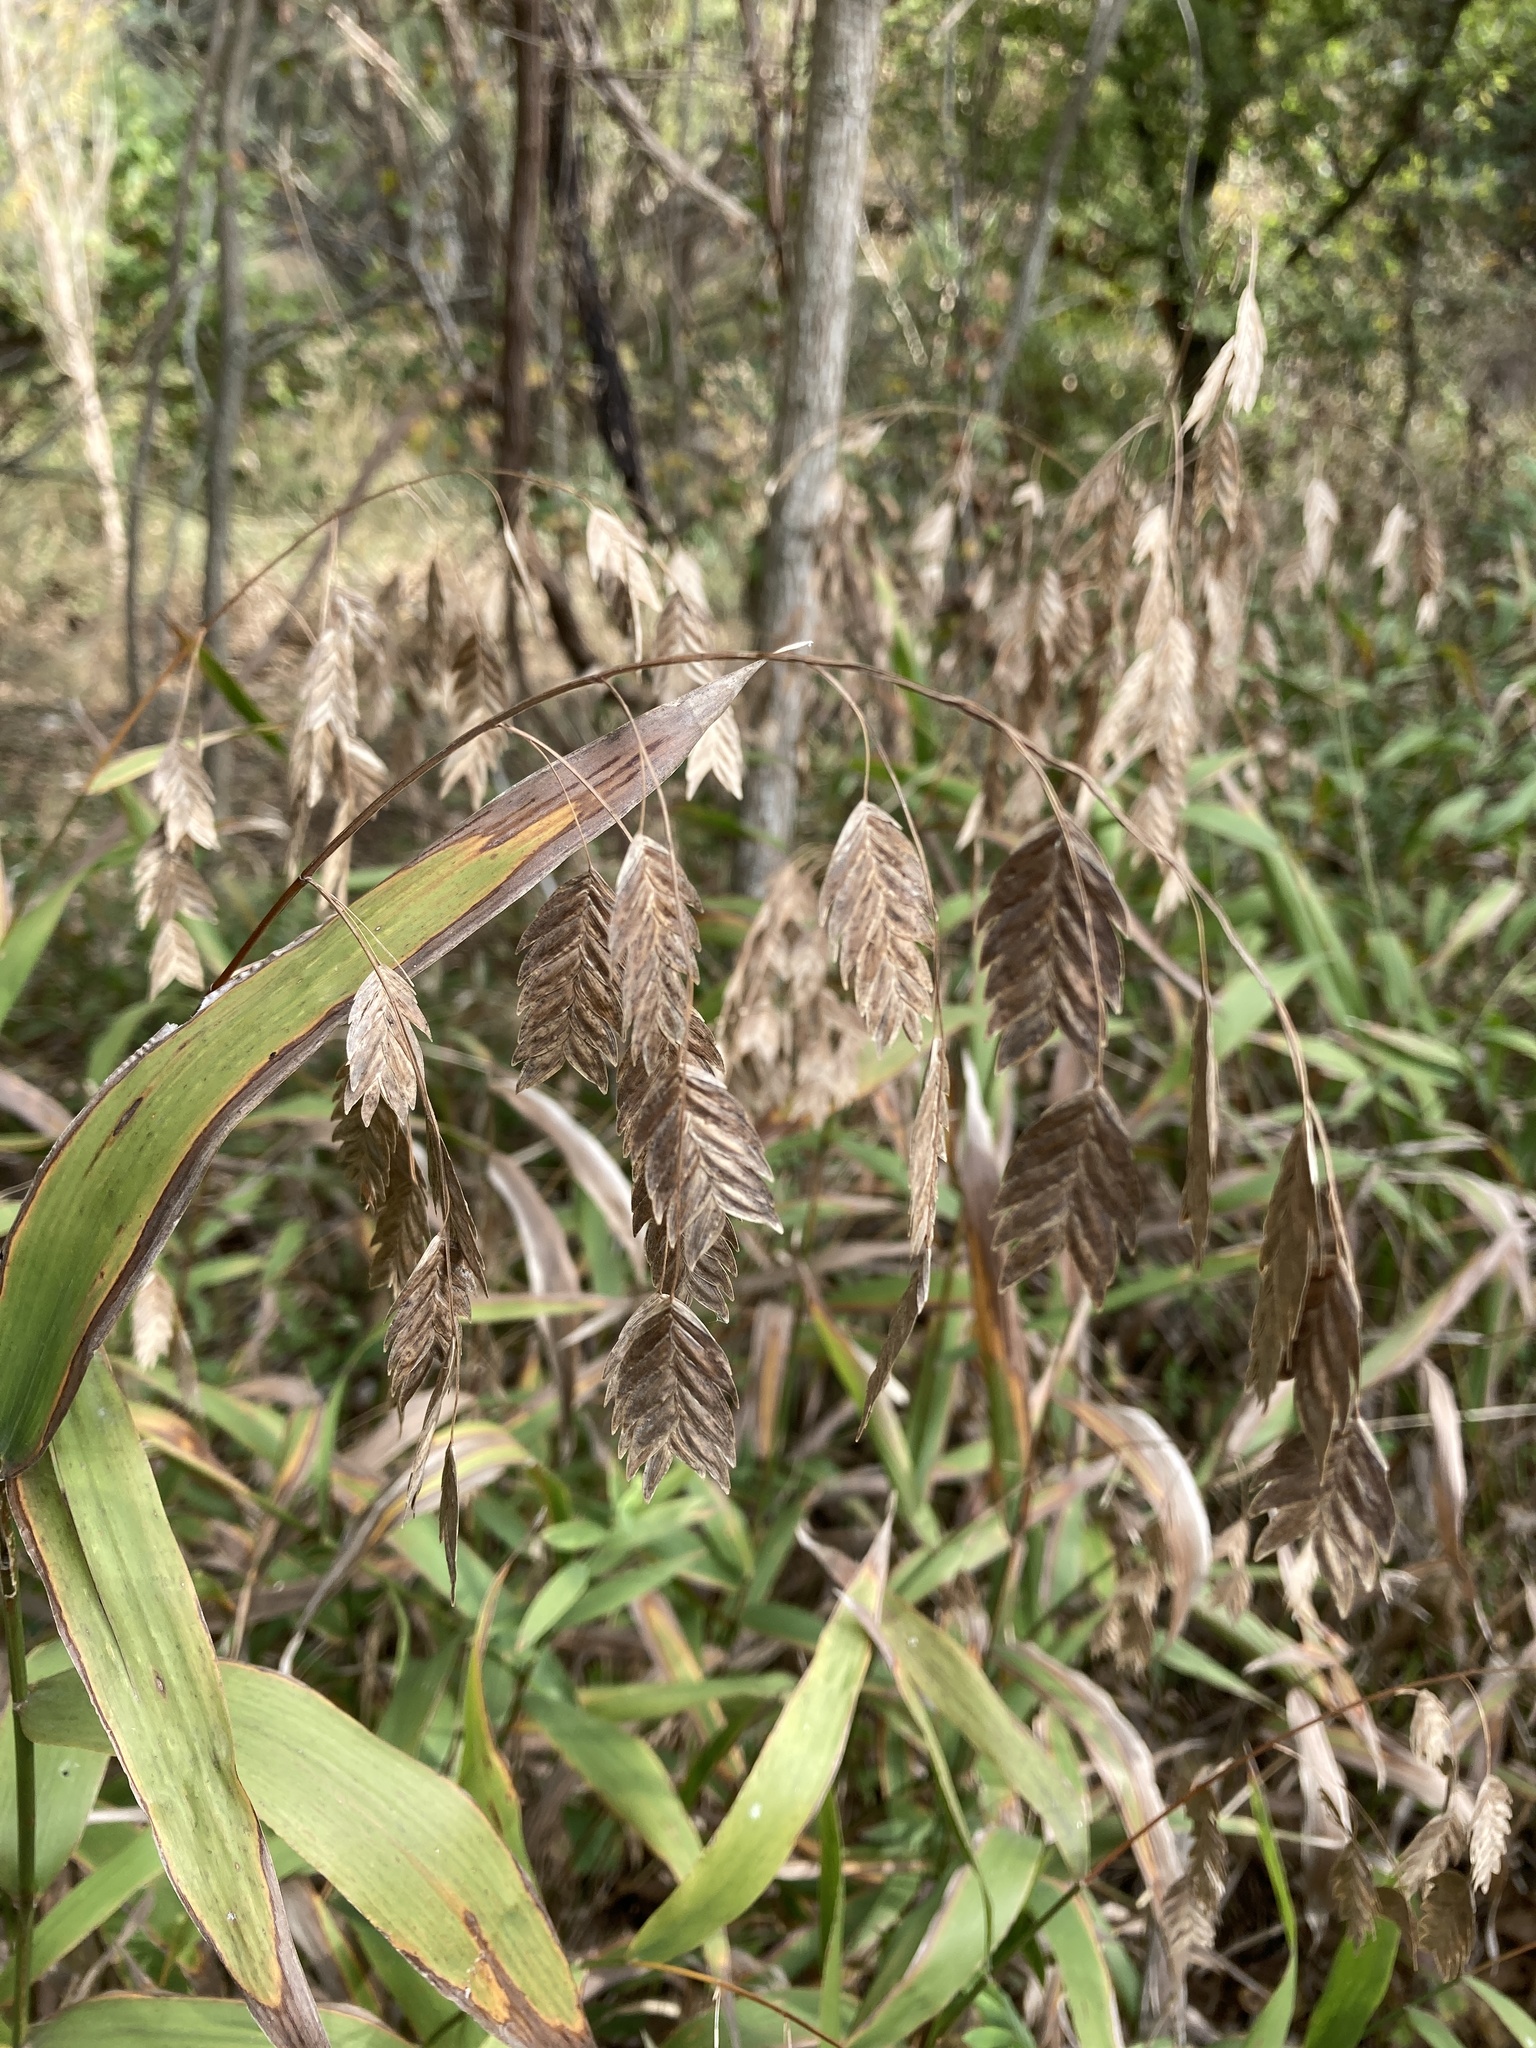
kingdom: Plantae
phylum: Tracheophyta
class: Liliopsida
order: Poales
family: Poaceae
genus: Chasmanthium
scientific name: Chasmanthium latifolium
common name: Broad-leaved chasmanthium
